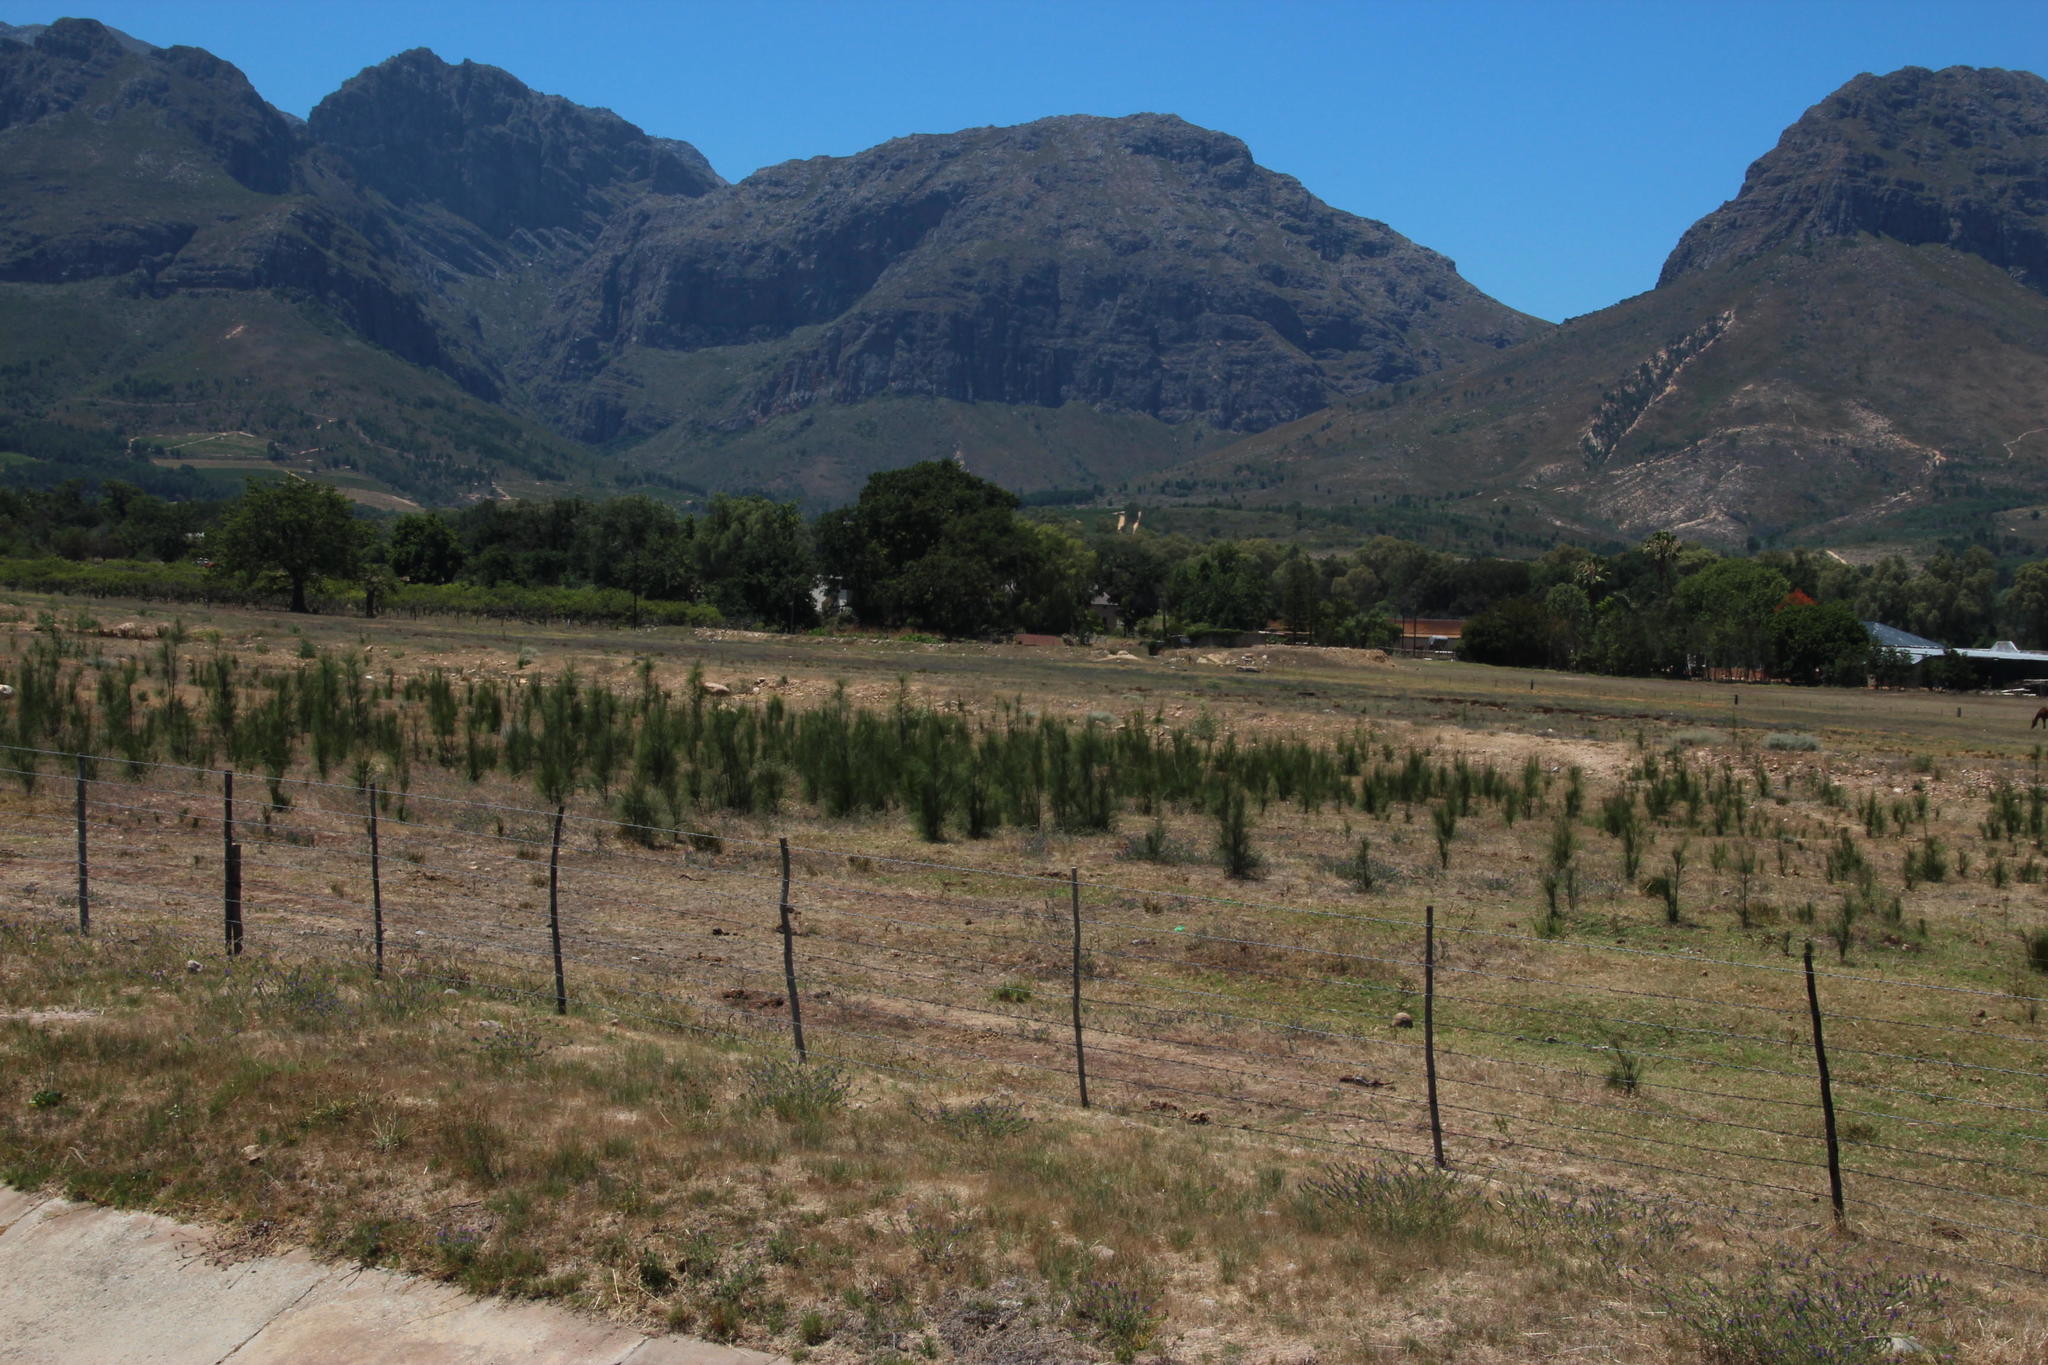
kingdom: Plantae
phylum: Tracheophyta
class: Magnoliopsida
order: Fagales
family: Casuarinaceae
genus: Casuarina
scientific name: Casuarina cunninghamiana
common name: River sheoak
